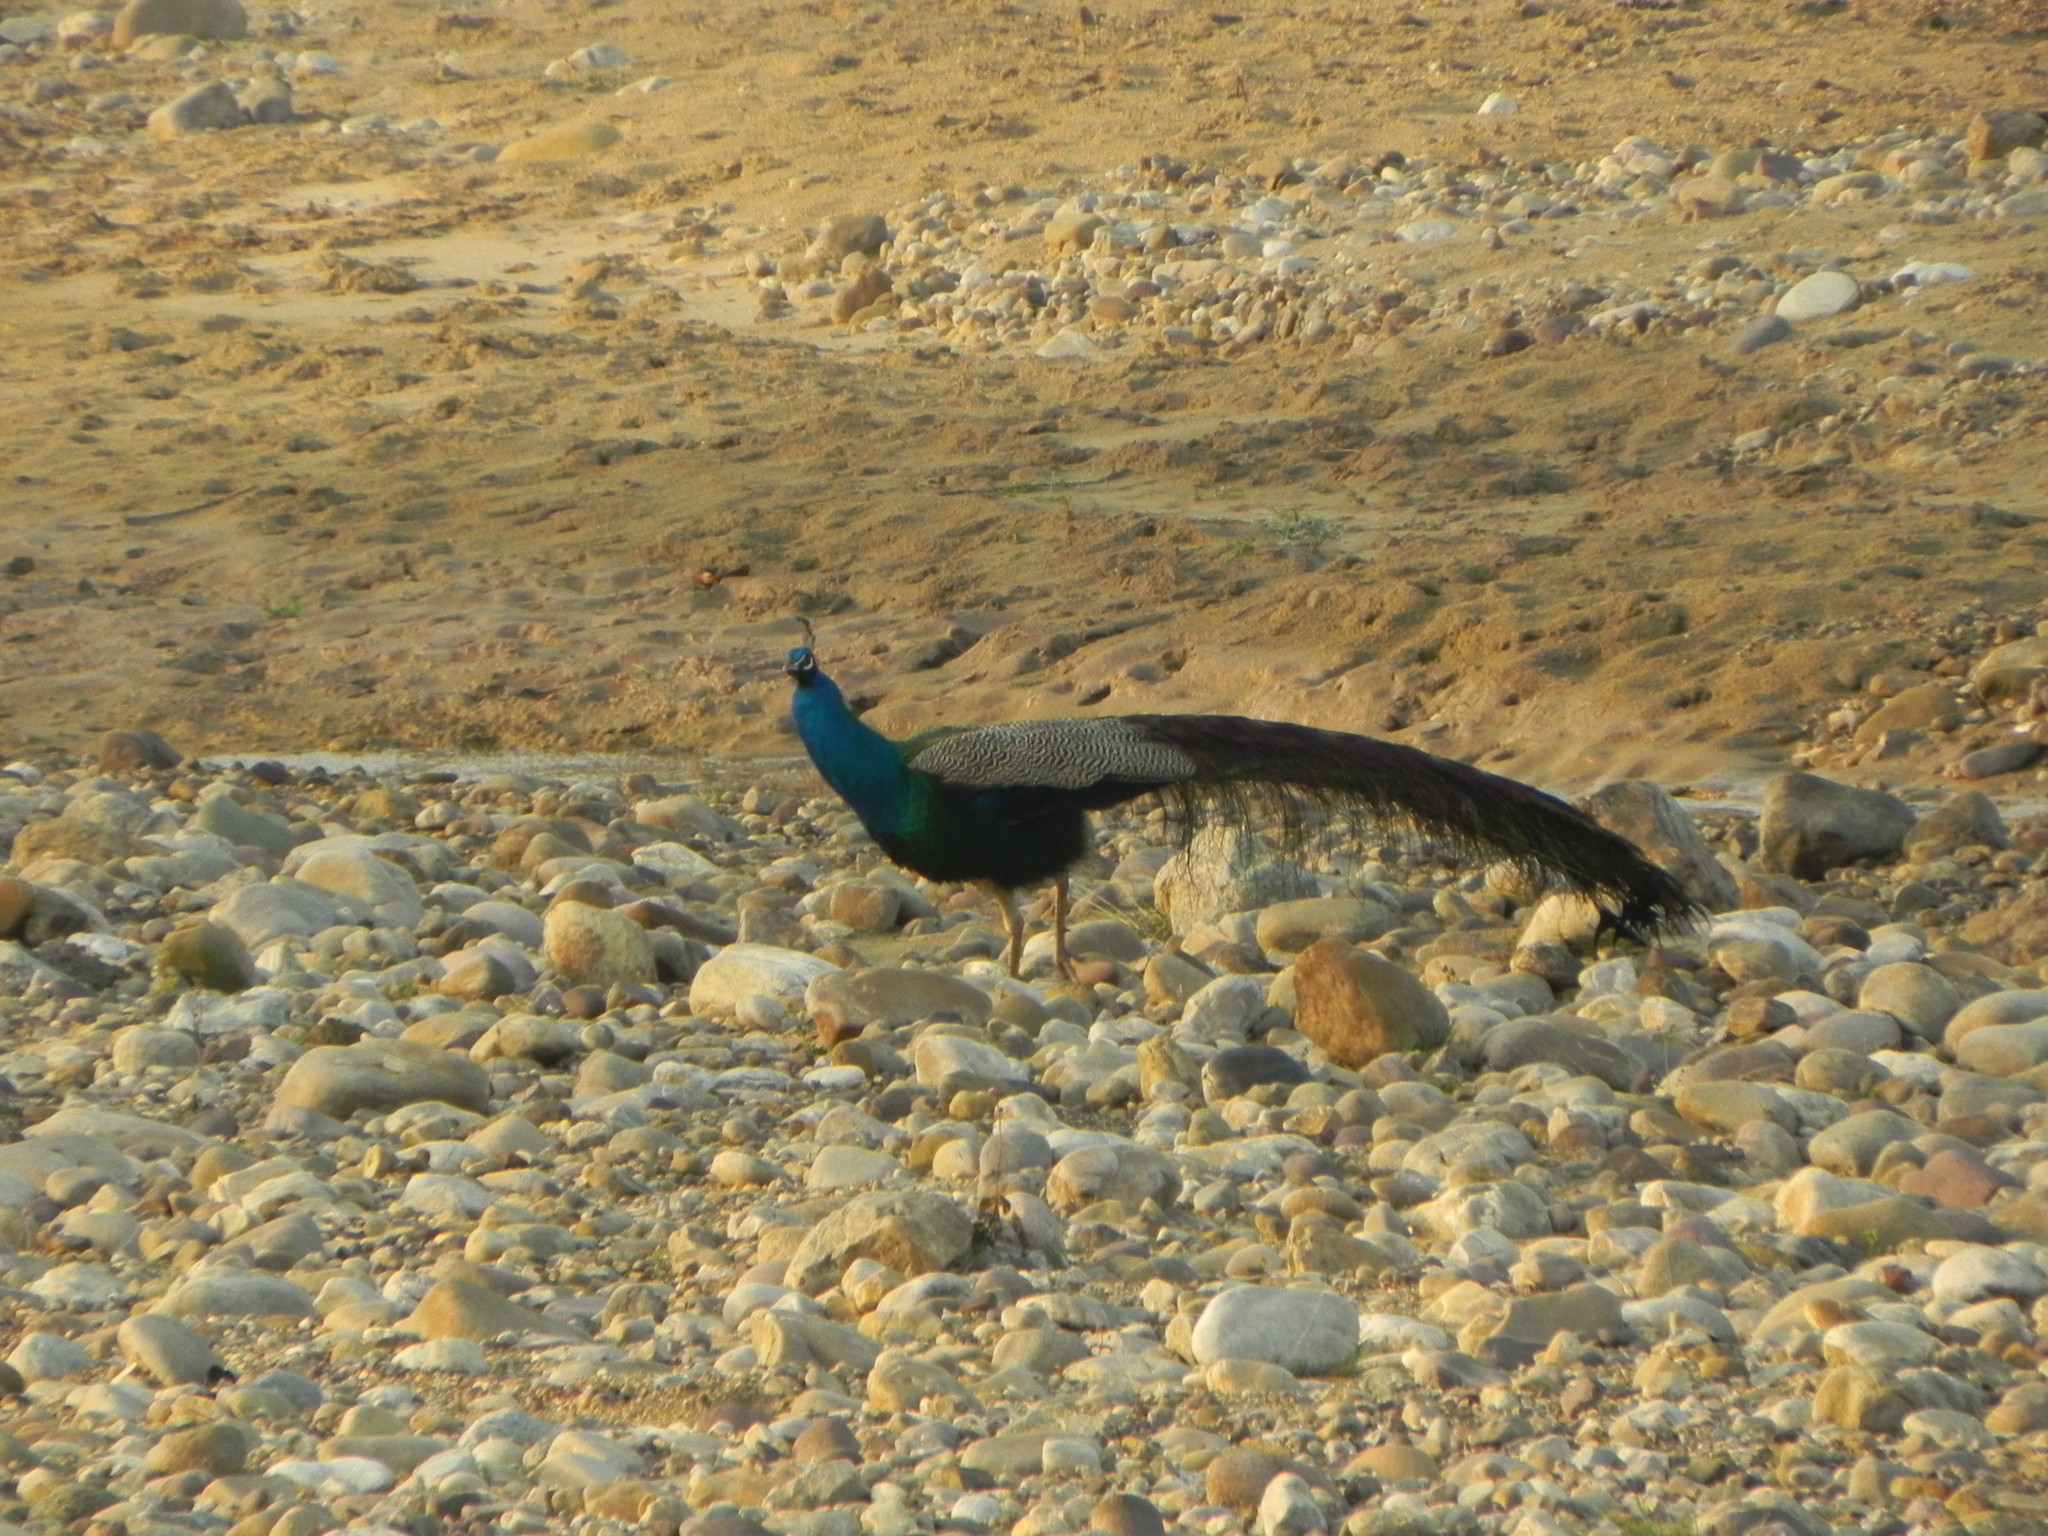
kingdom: Animalia
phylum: Chordata
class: Aves
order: Galliformes
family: Phasianidae
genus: Pavo
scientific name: Pavo cristatus
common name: Indian peafowl
